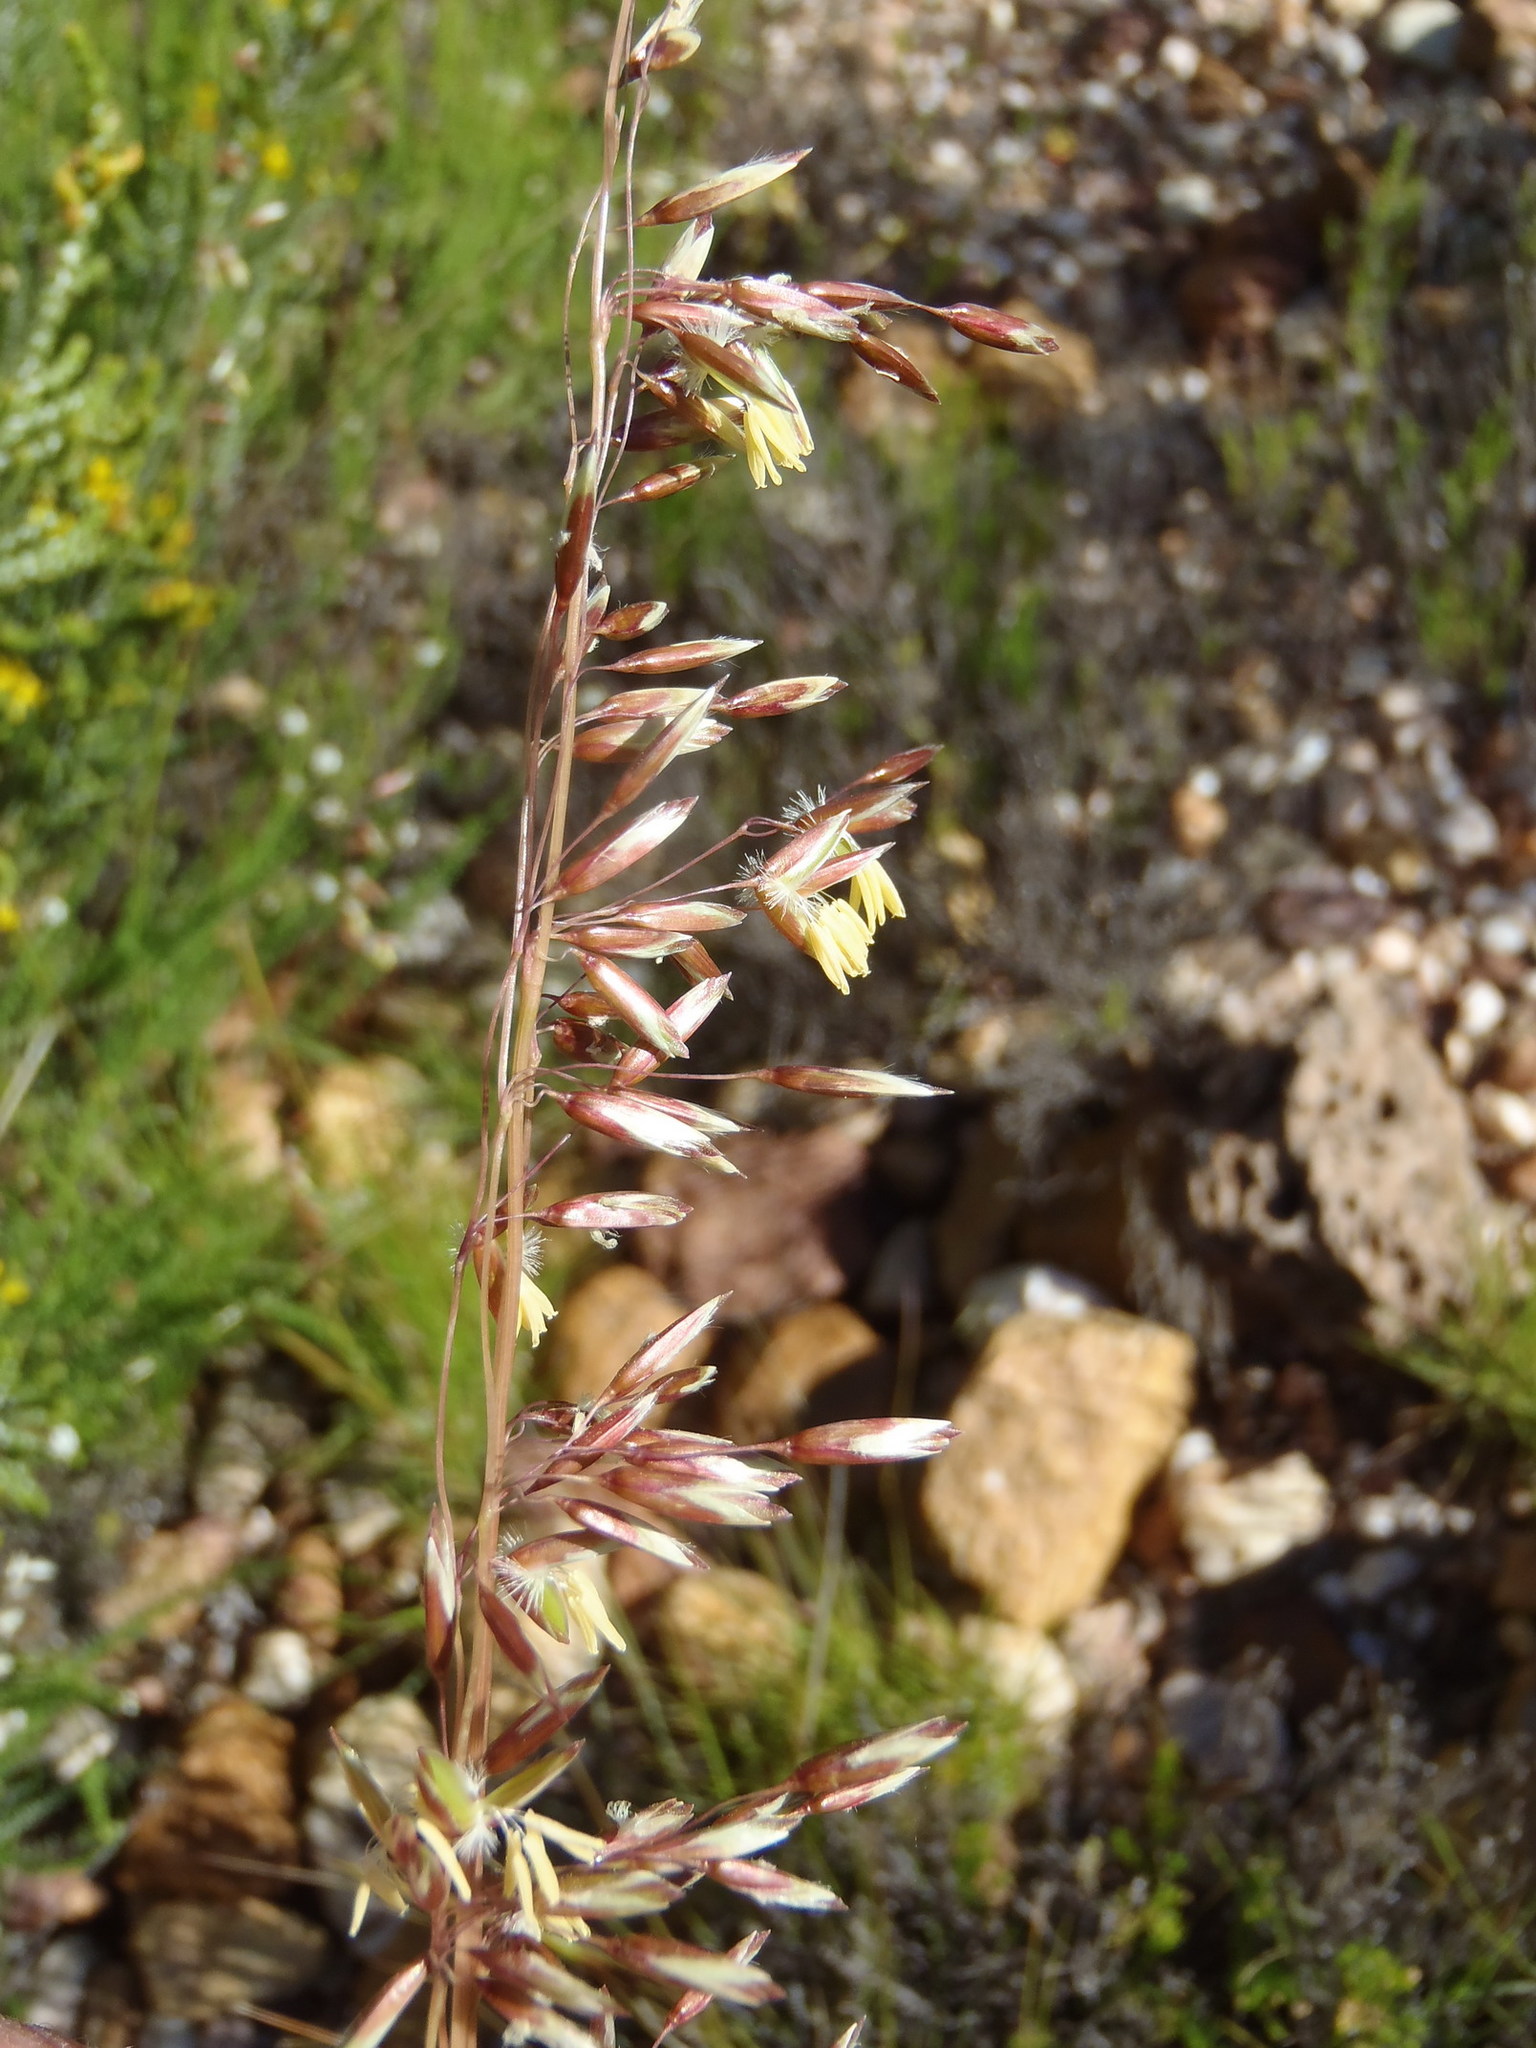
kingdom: Plantae
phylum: Tracheophyta
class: Liliopsida
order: Poales
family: Poaceae
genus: Ehrharta
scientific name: Ehrharta calycina
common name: Perennial veldtgrass
